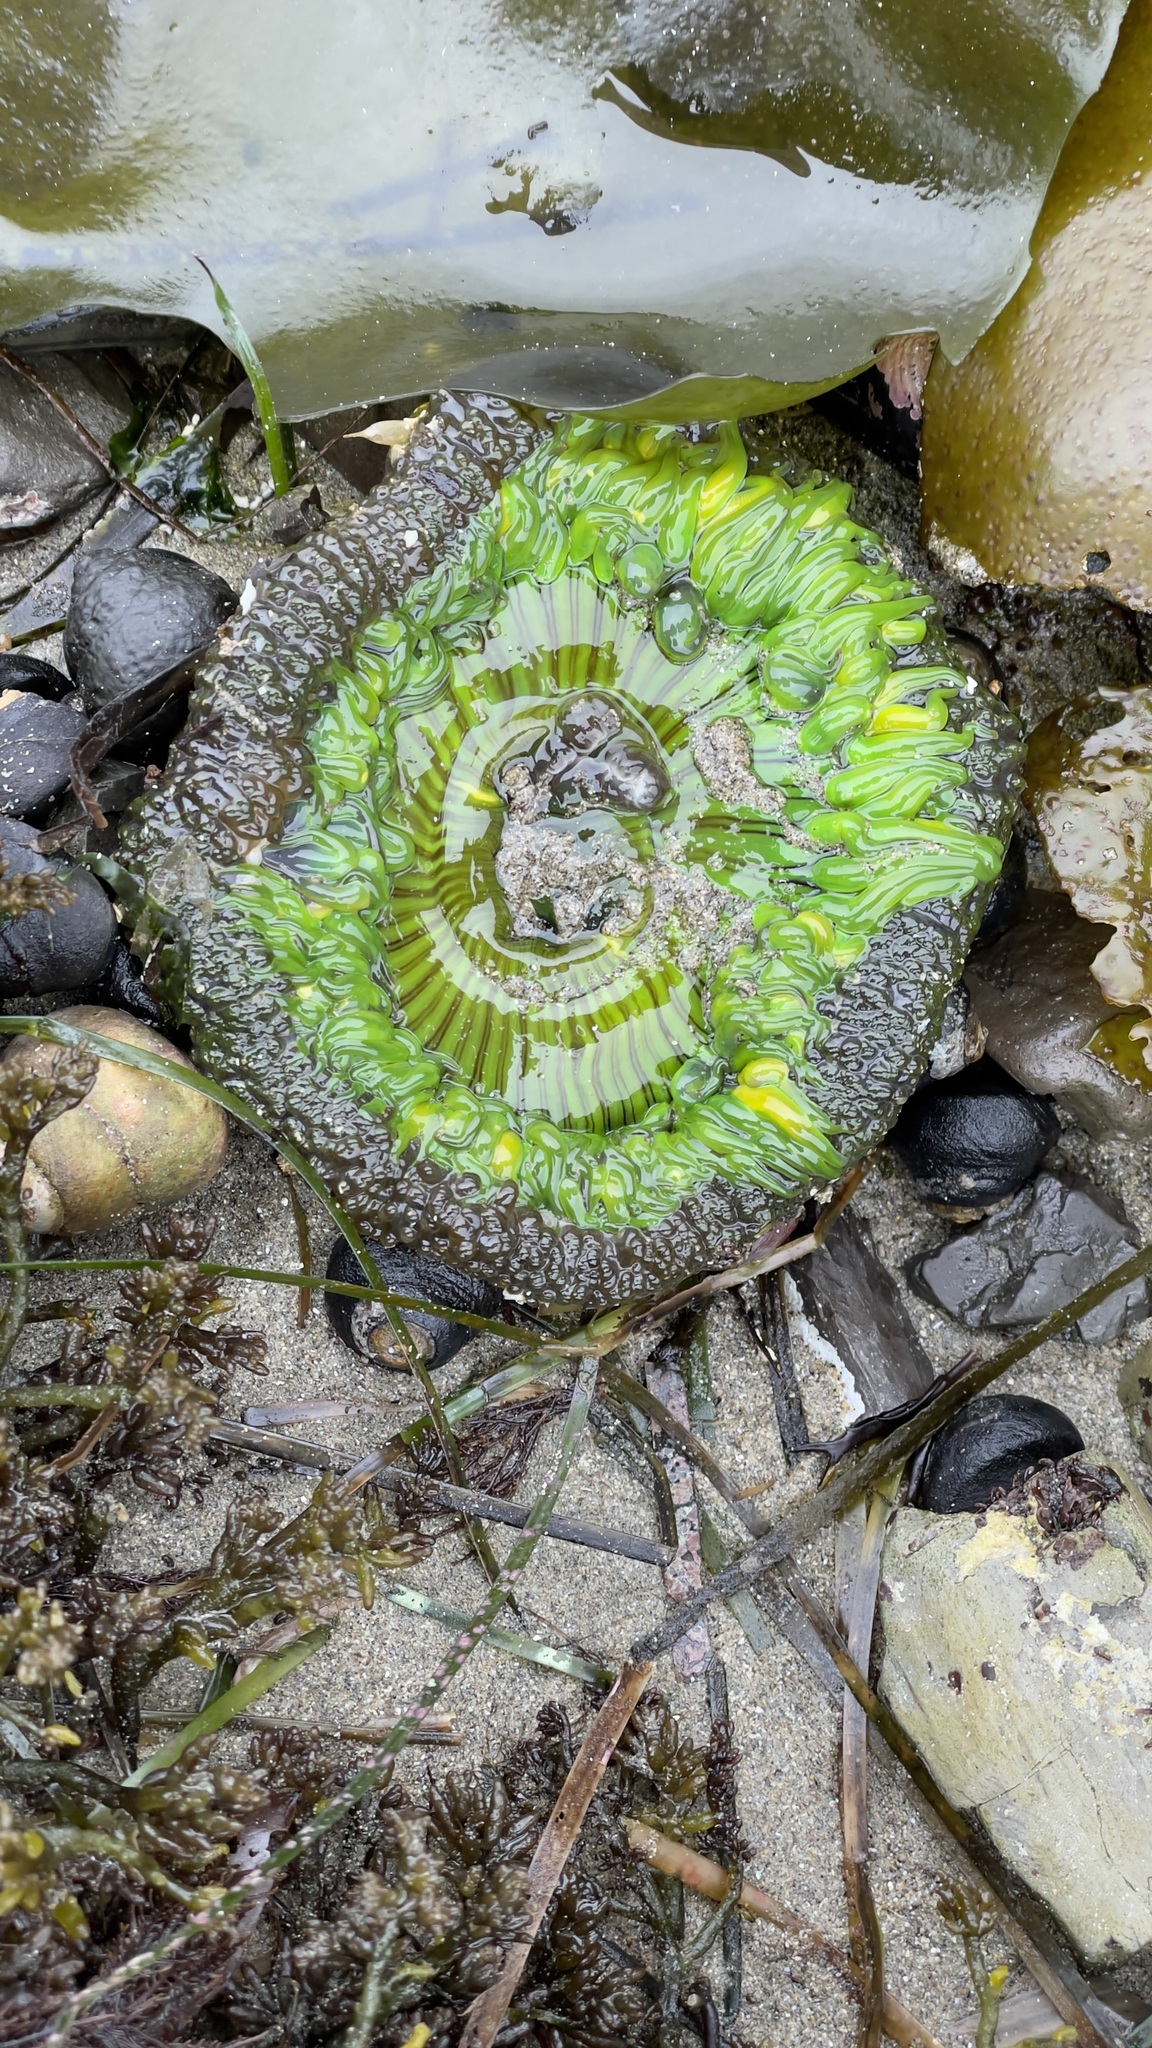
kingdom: Animalia
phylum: Cnidaria
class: Anthozoa
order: Actiniaria
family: Actiniidae
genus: Anthopleura
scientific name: Anthopleura sola
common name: Sun anemone
